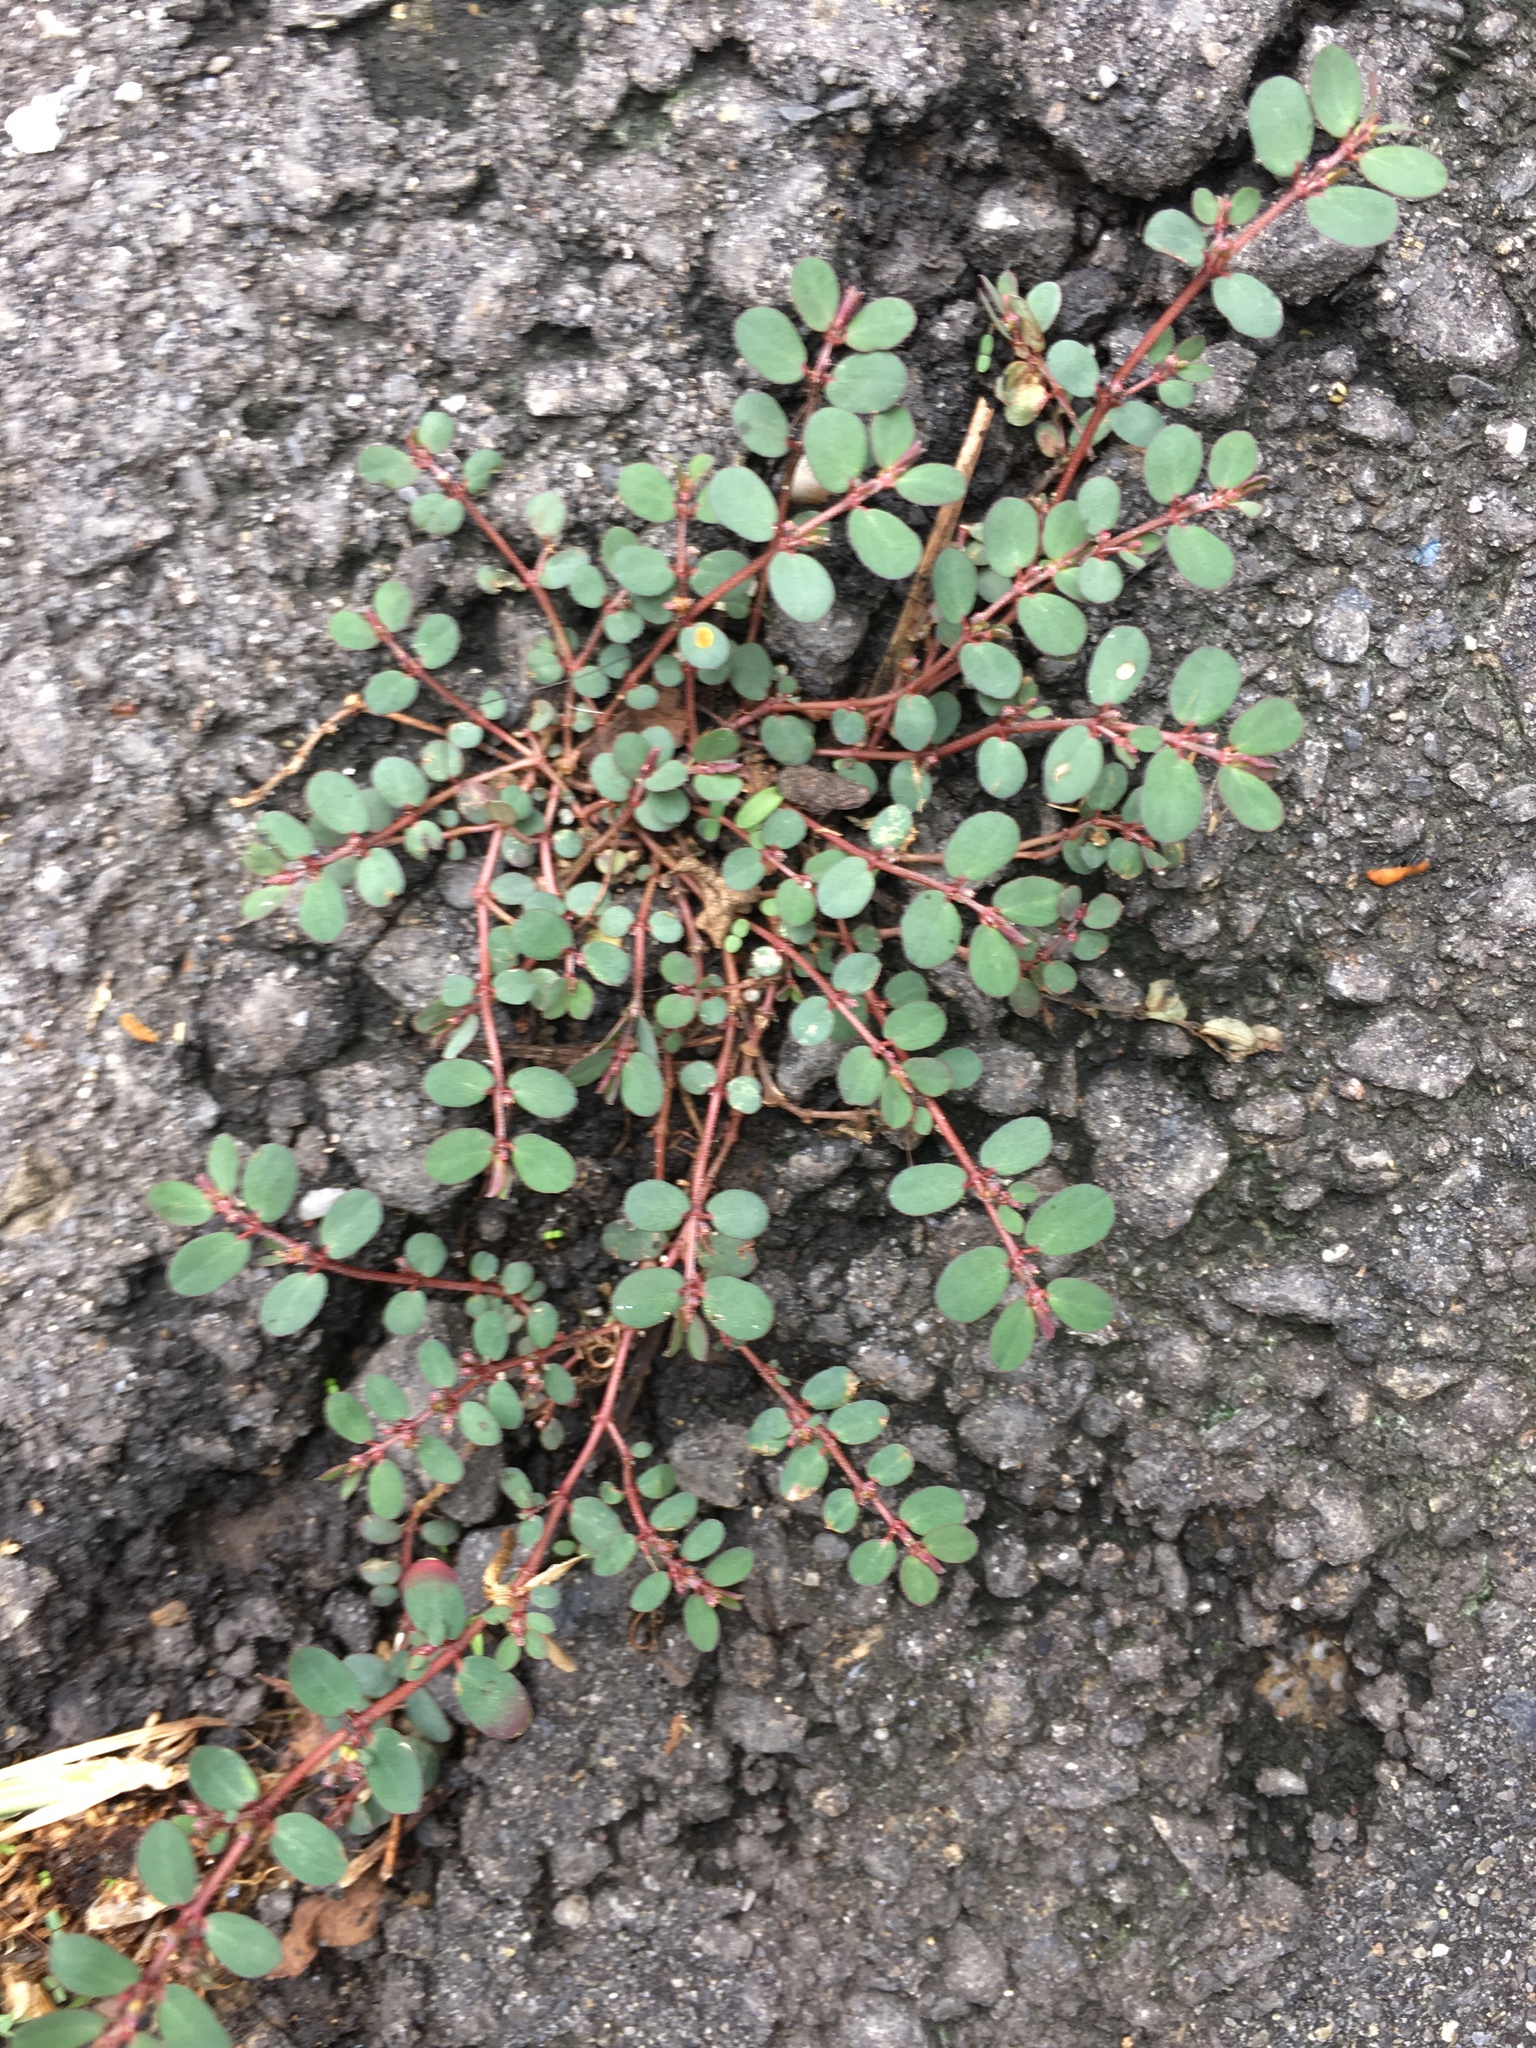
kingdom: Plantae
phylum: Tracheophyta
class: Magnoliopsida
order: Malpighiales
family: Euphorbiaceae
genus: Euphorbia
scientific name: Euphorbia prostrata
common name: Prostrate sandmat
